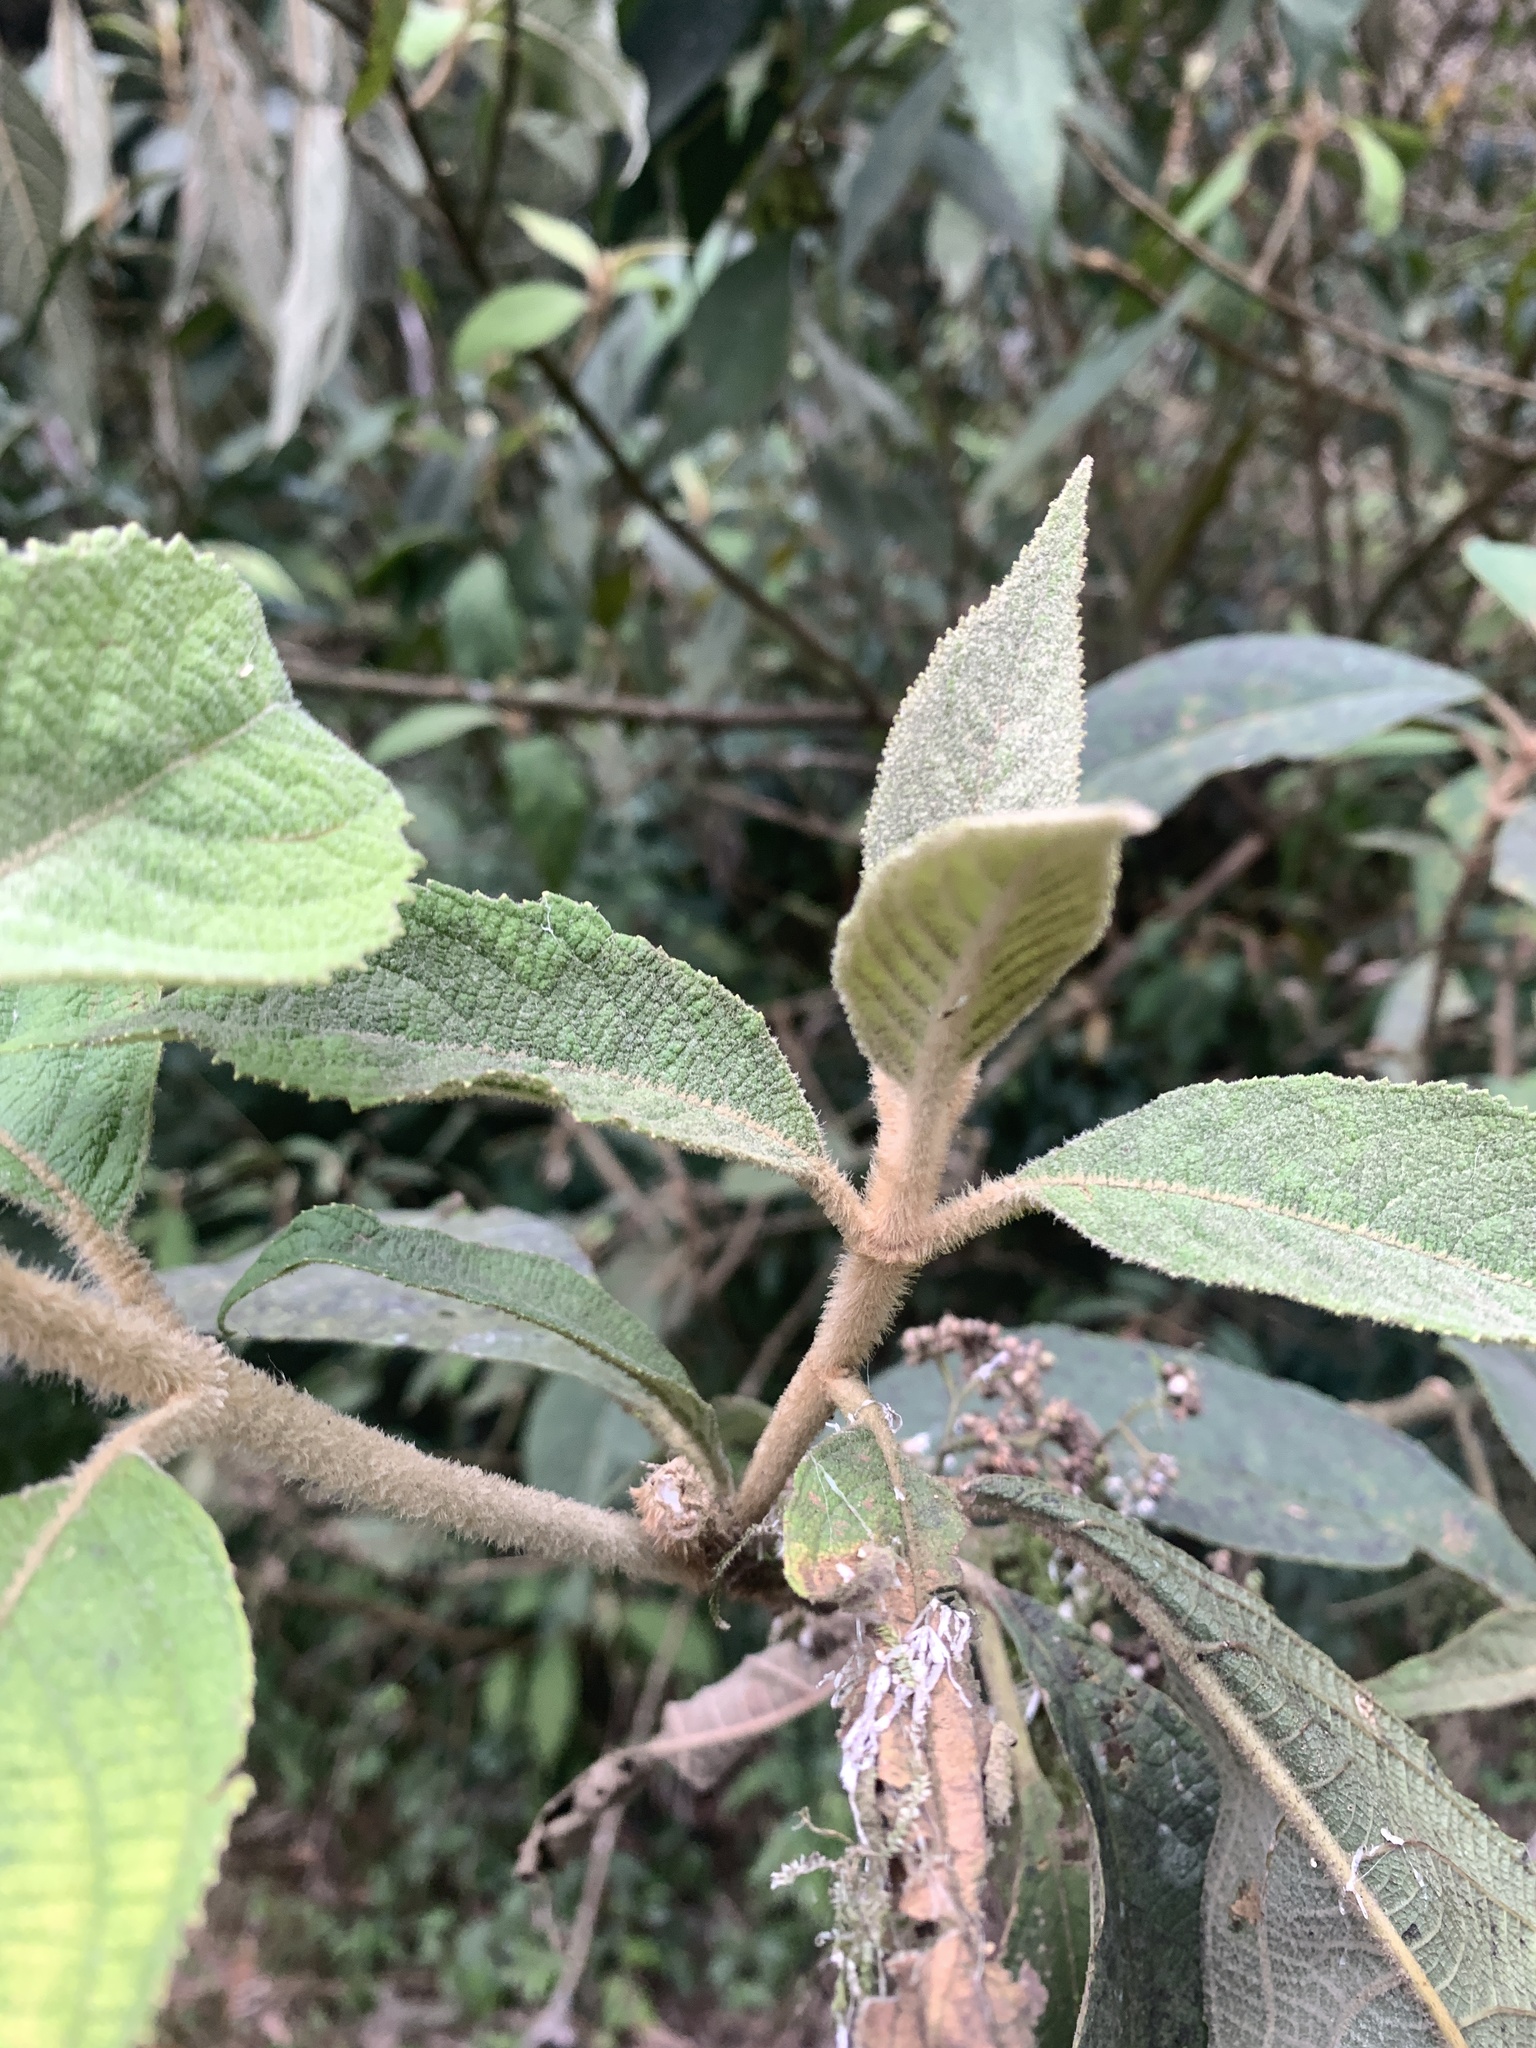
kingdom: Plantae
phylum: Tracheophyta
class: Magnoliopsida
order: Lamiales
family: Lamiaceae
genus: Callicarpa
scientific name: Callicarpa kochiana
